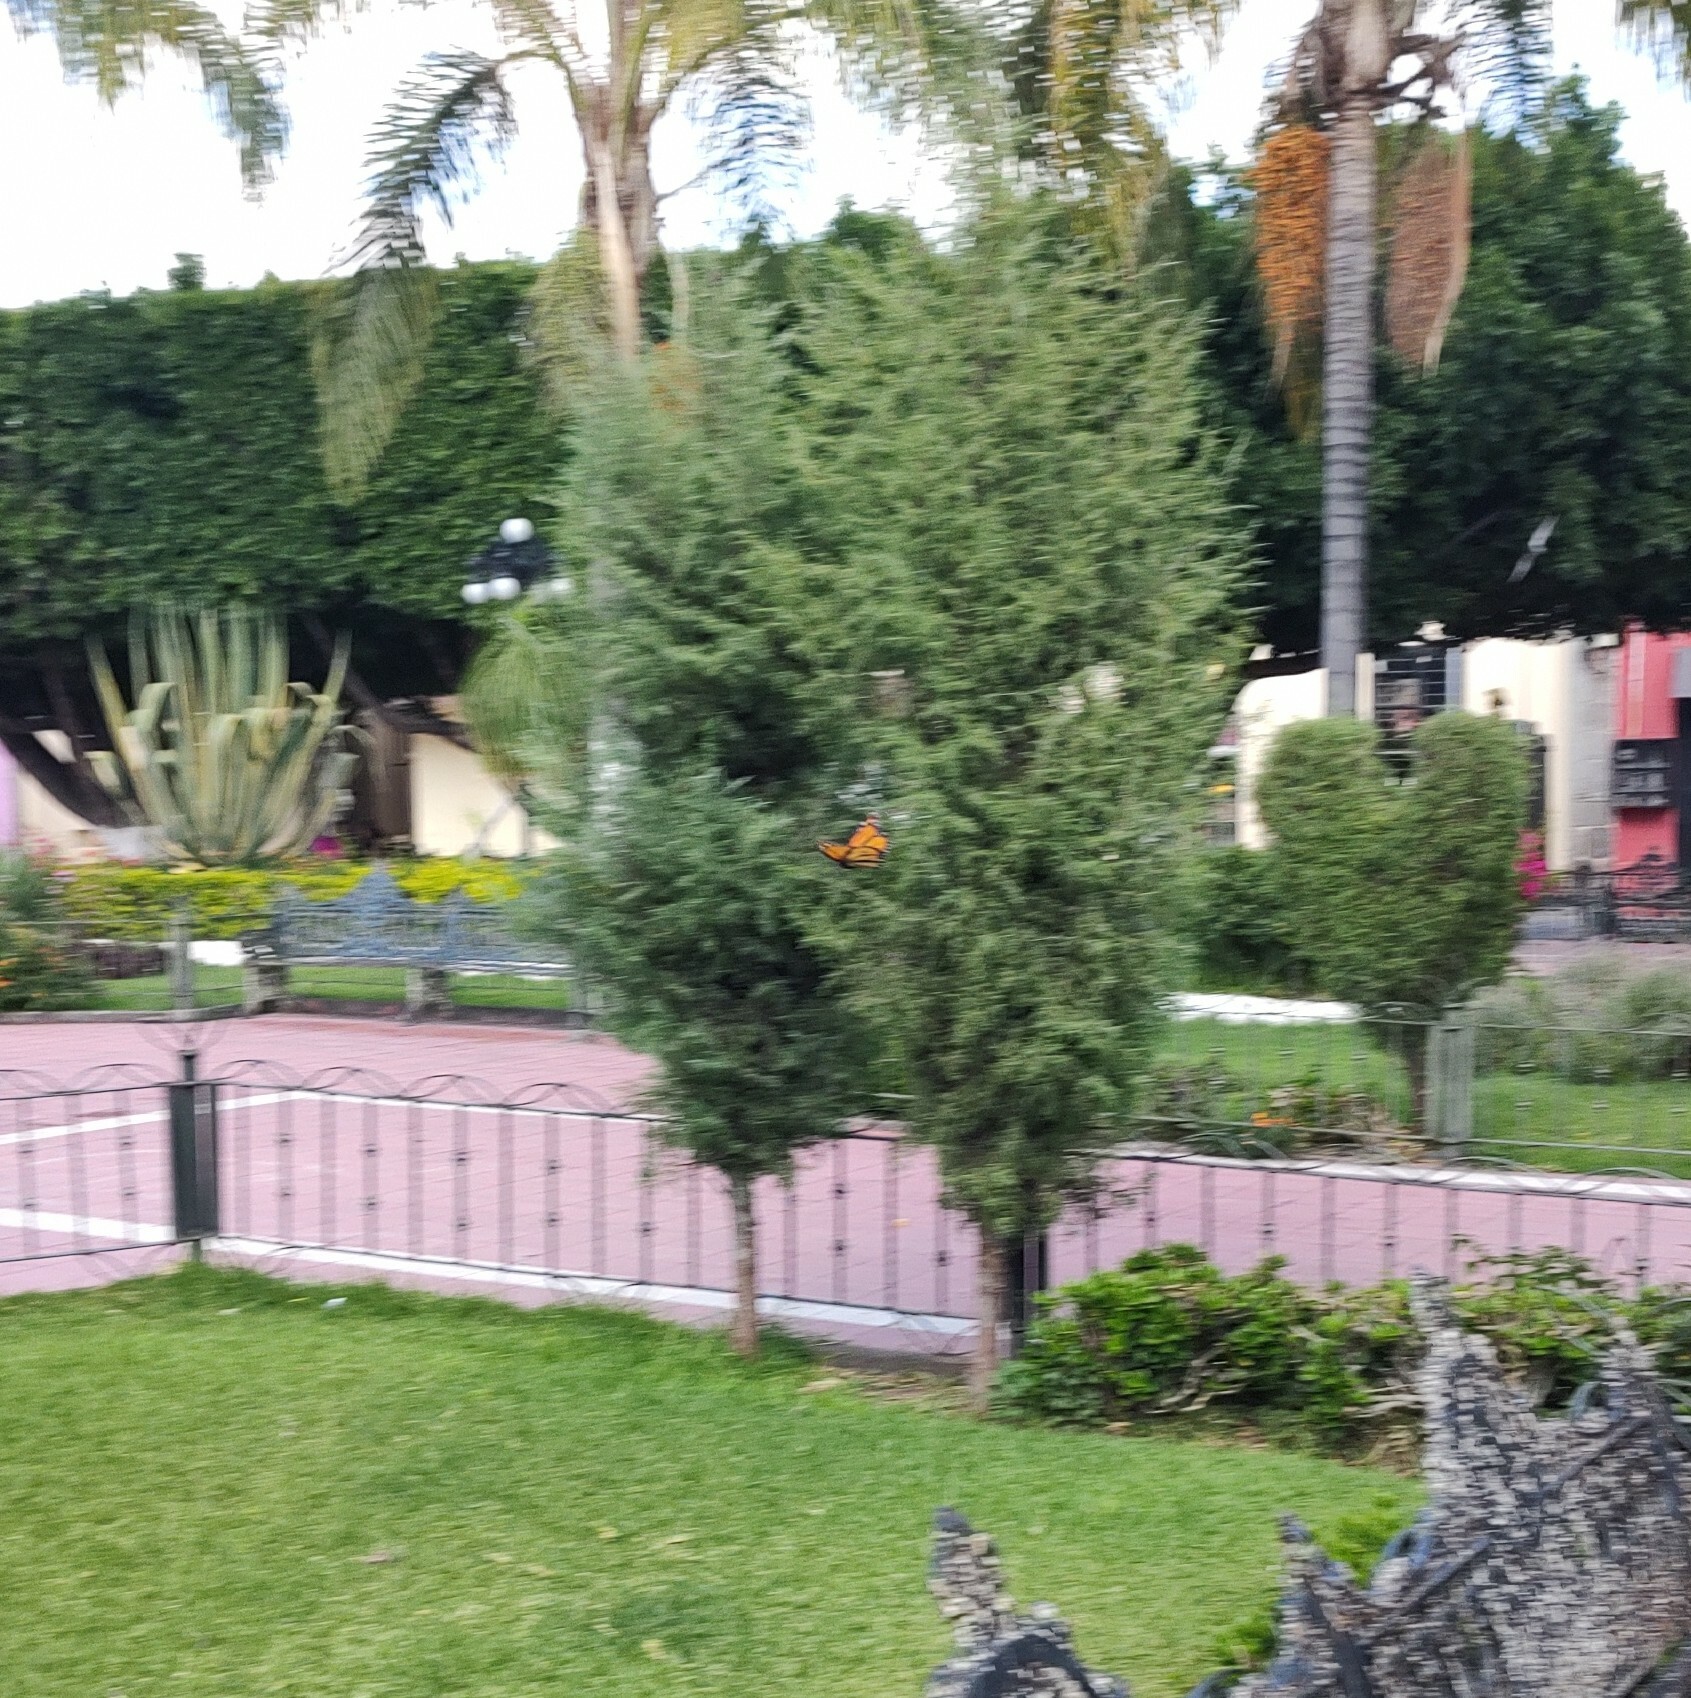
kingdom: Animalia
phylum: Arthropoda
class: Insecta
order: Lepidoptera
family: Nymphalidae
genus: Danaus
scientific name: Danaus plexippus
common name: Monarch
